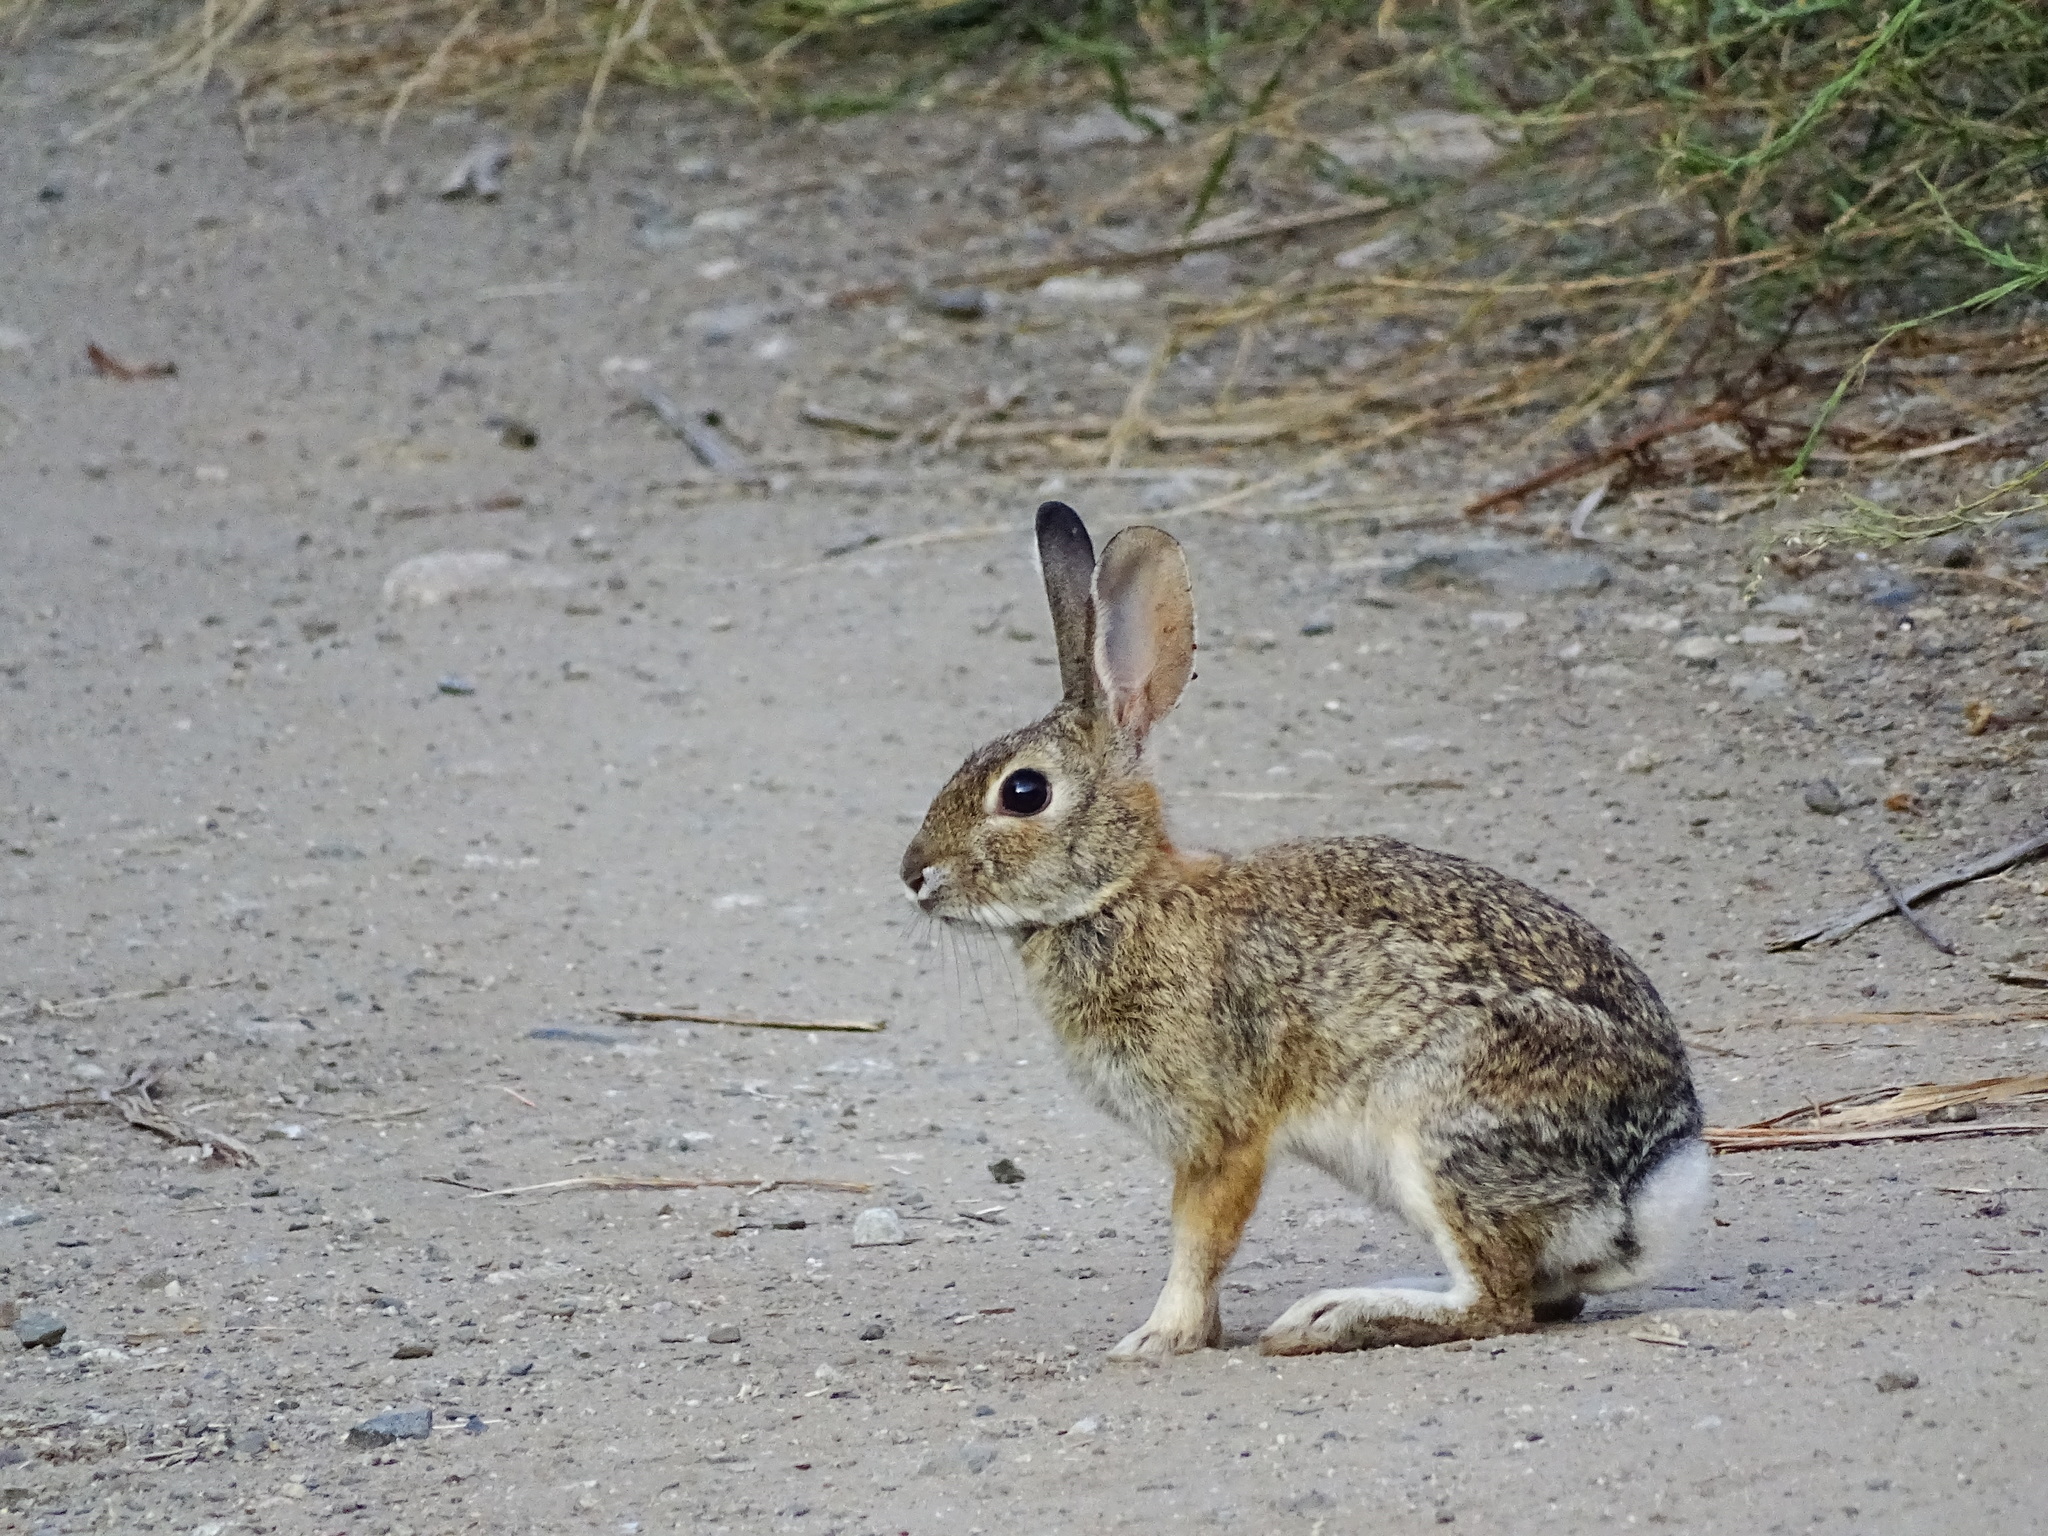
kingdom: Animalia
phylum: Chordata
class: Mammalia
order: Lagomorpha
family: Leporidae
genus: Sylvilagus
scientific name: Sylvilagus audubonii
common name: Desert cottontail
